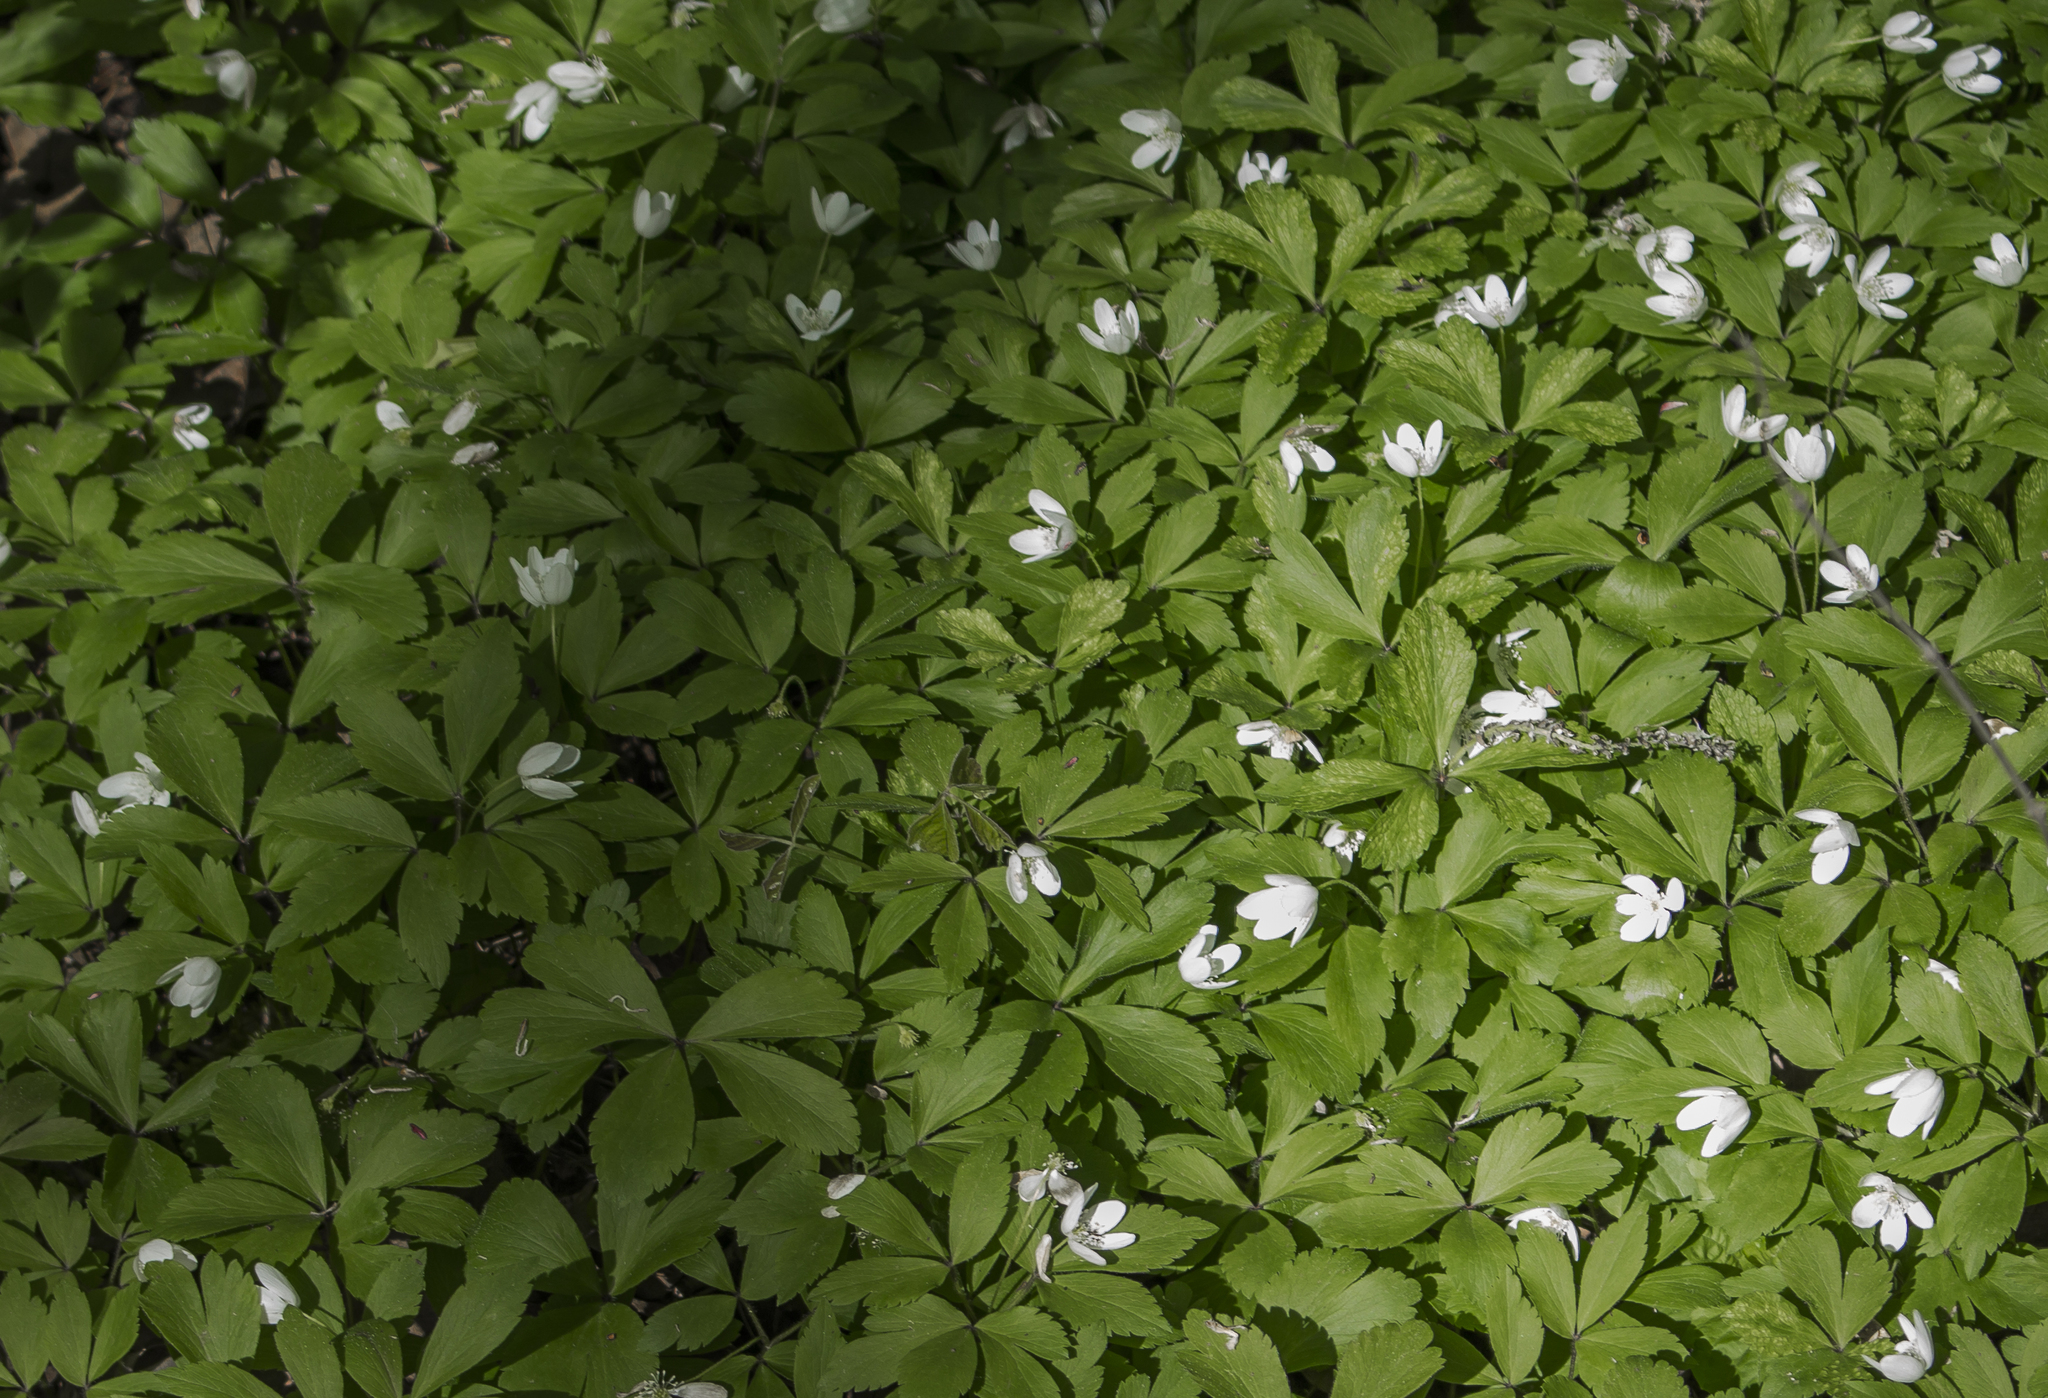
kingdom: Plantae
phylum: Tracheophyta
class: Magnoliopsida
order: Ranunculales
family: Ranunculaceae
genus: Anemone
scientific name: Anemone quinquefolia
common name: Wood anemone
